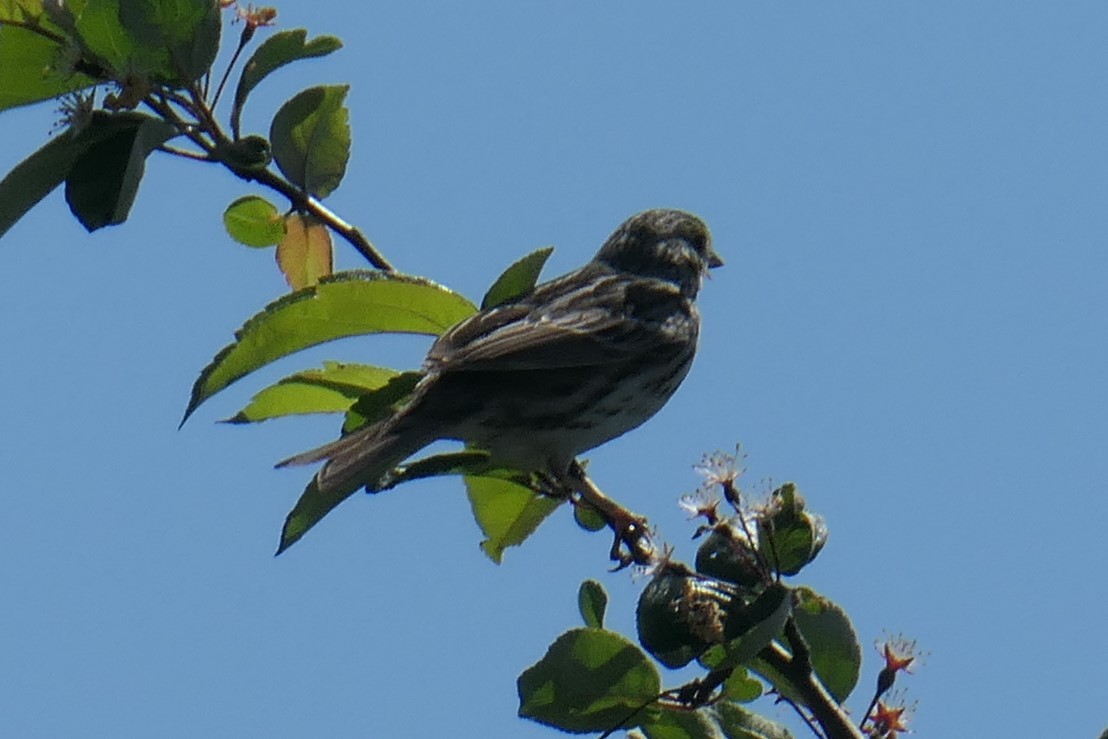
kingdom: Animalia
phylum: Chordata
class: Aves
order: Passeriformes
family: Passerellidae
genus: Passerculus
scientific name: Passerculus sandwichensis
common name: Savannah sparrow
